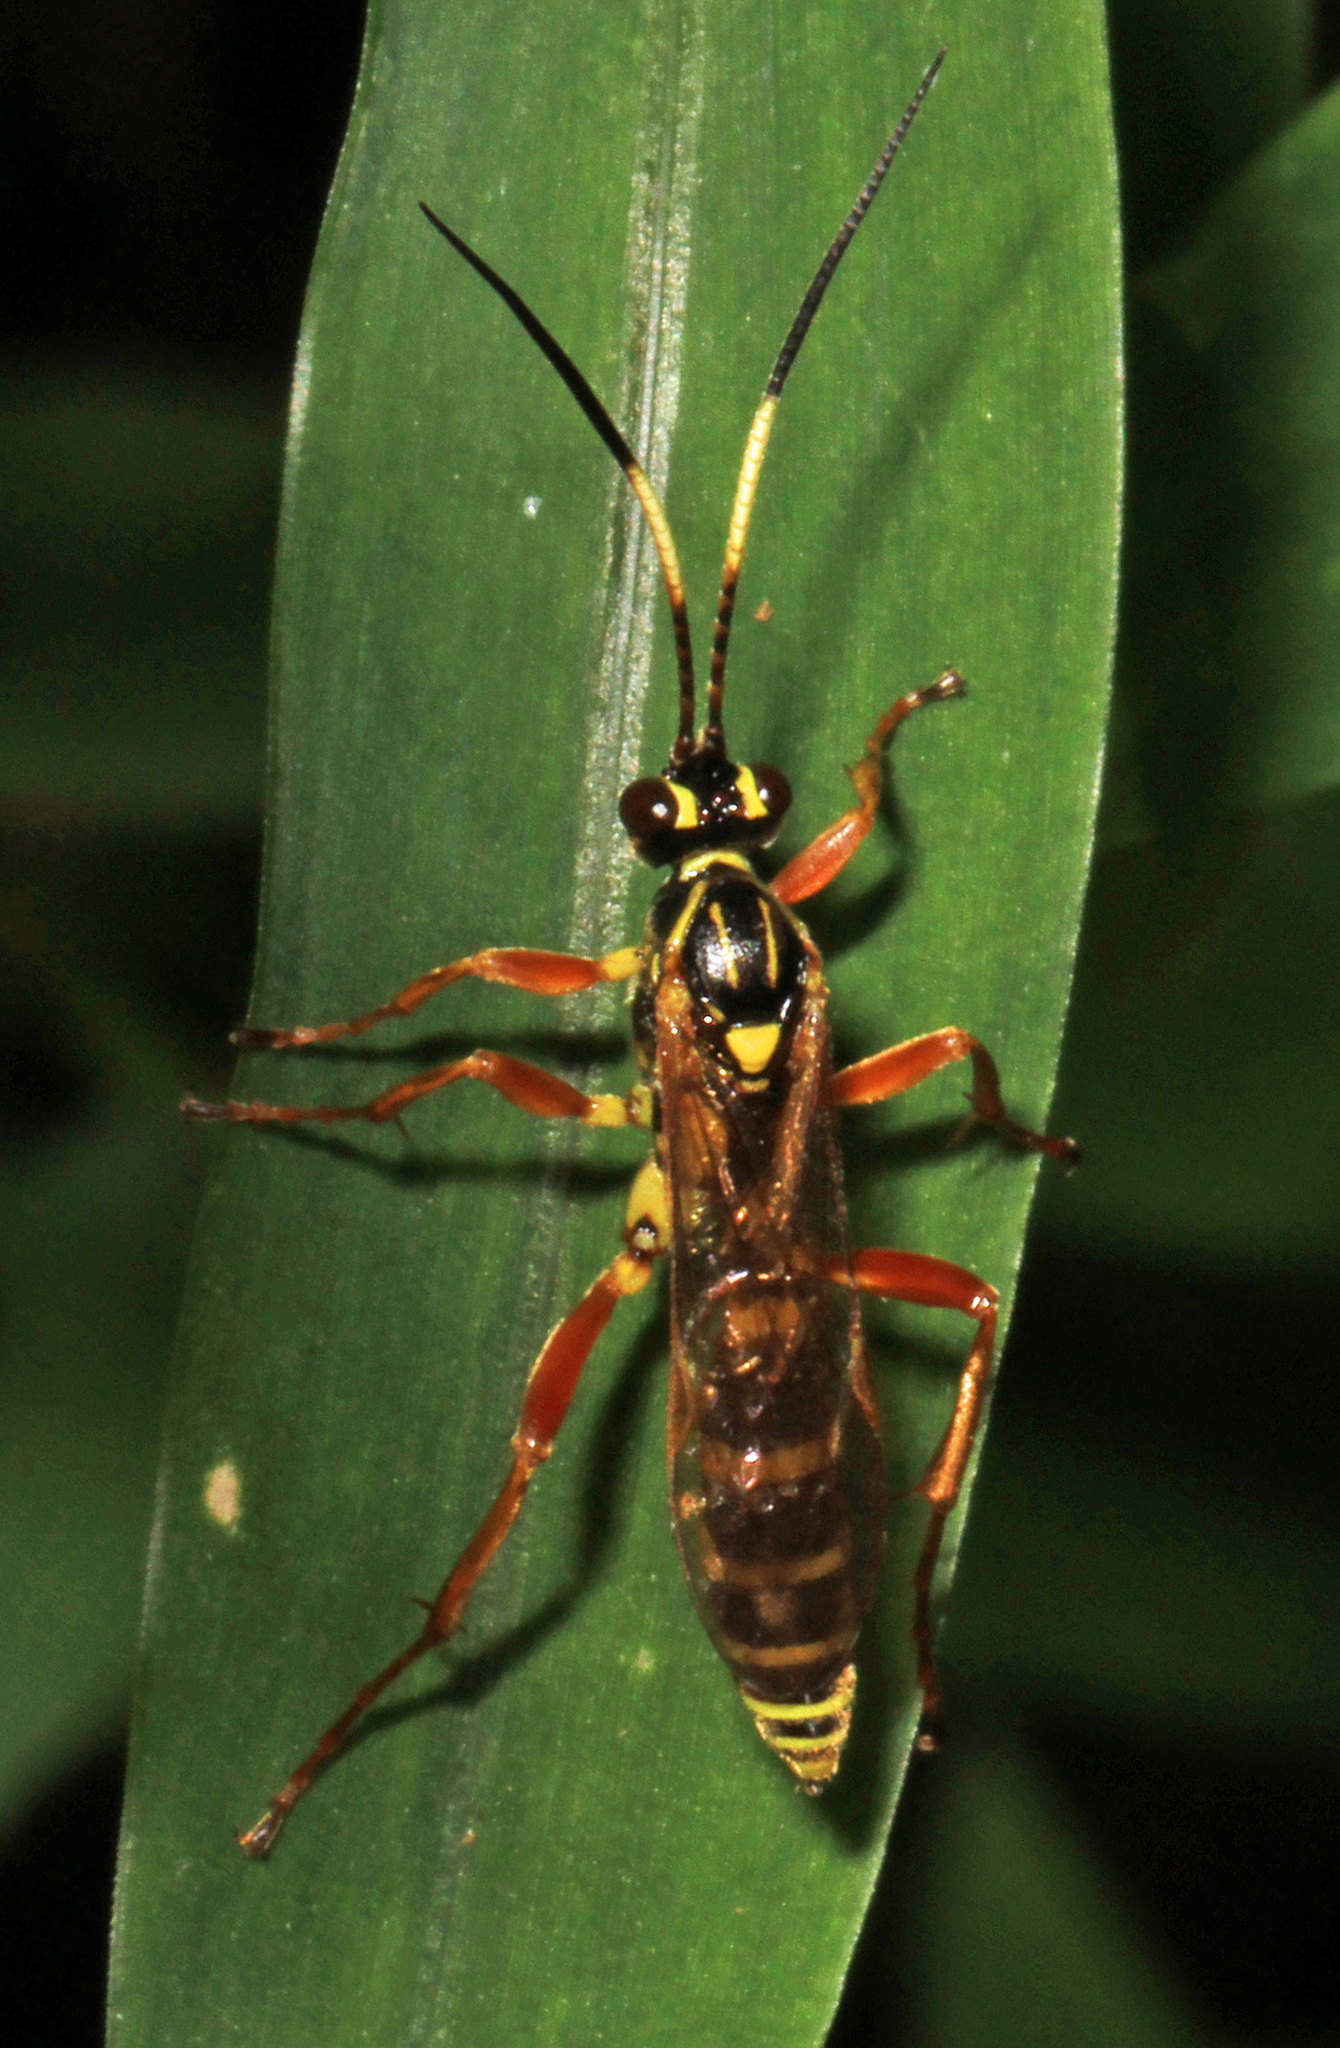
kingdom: Animalia
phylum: Arthropoda
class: Insecta
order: Hymenoptera
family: Ichneumonidae
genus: Setanta
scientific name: Setanta compta
